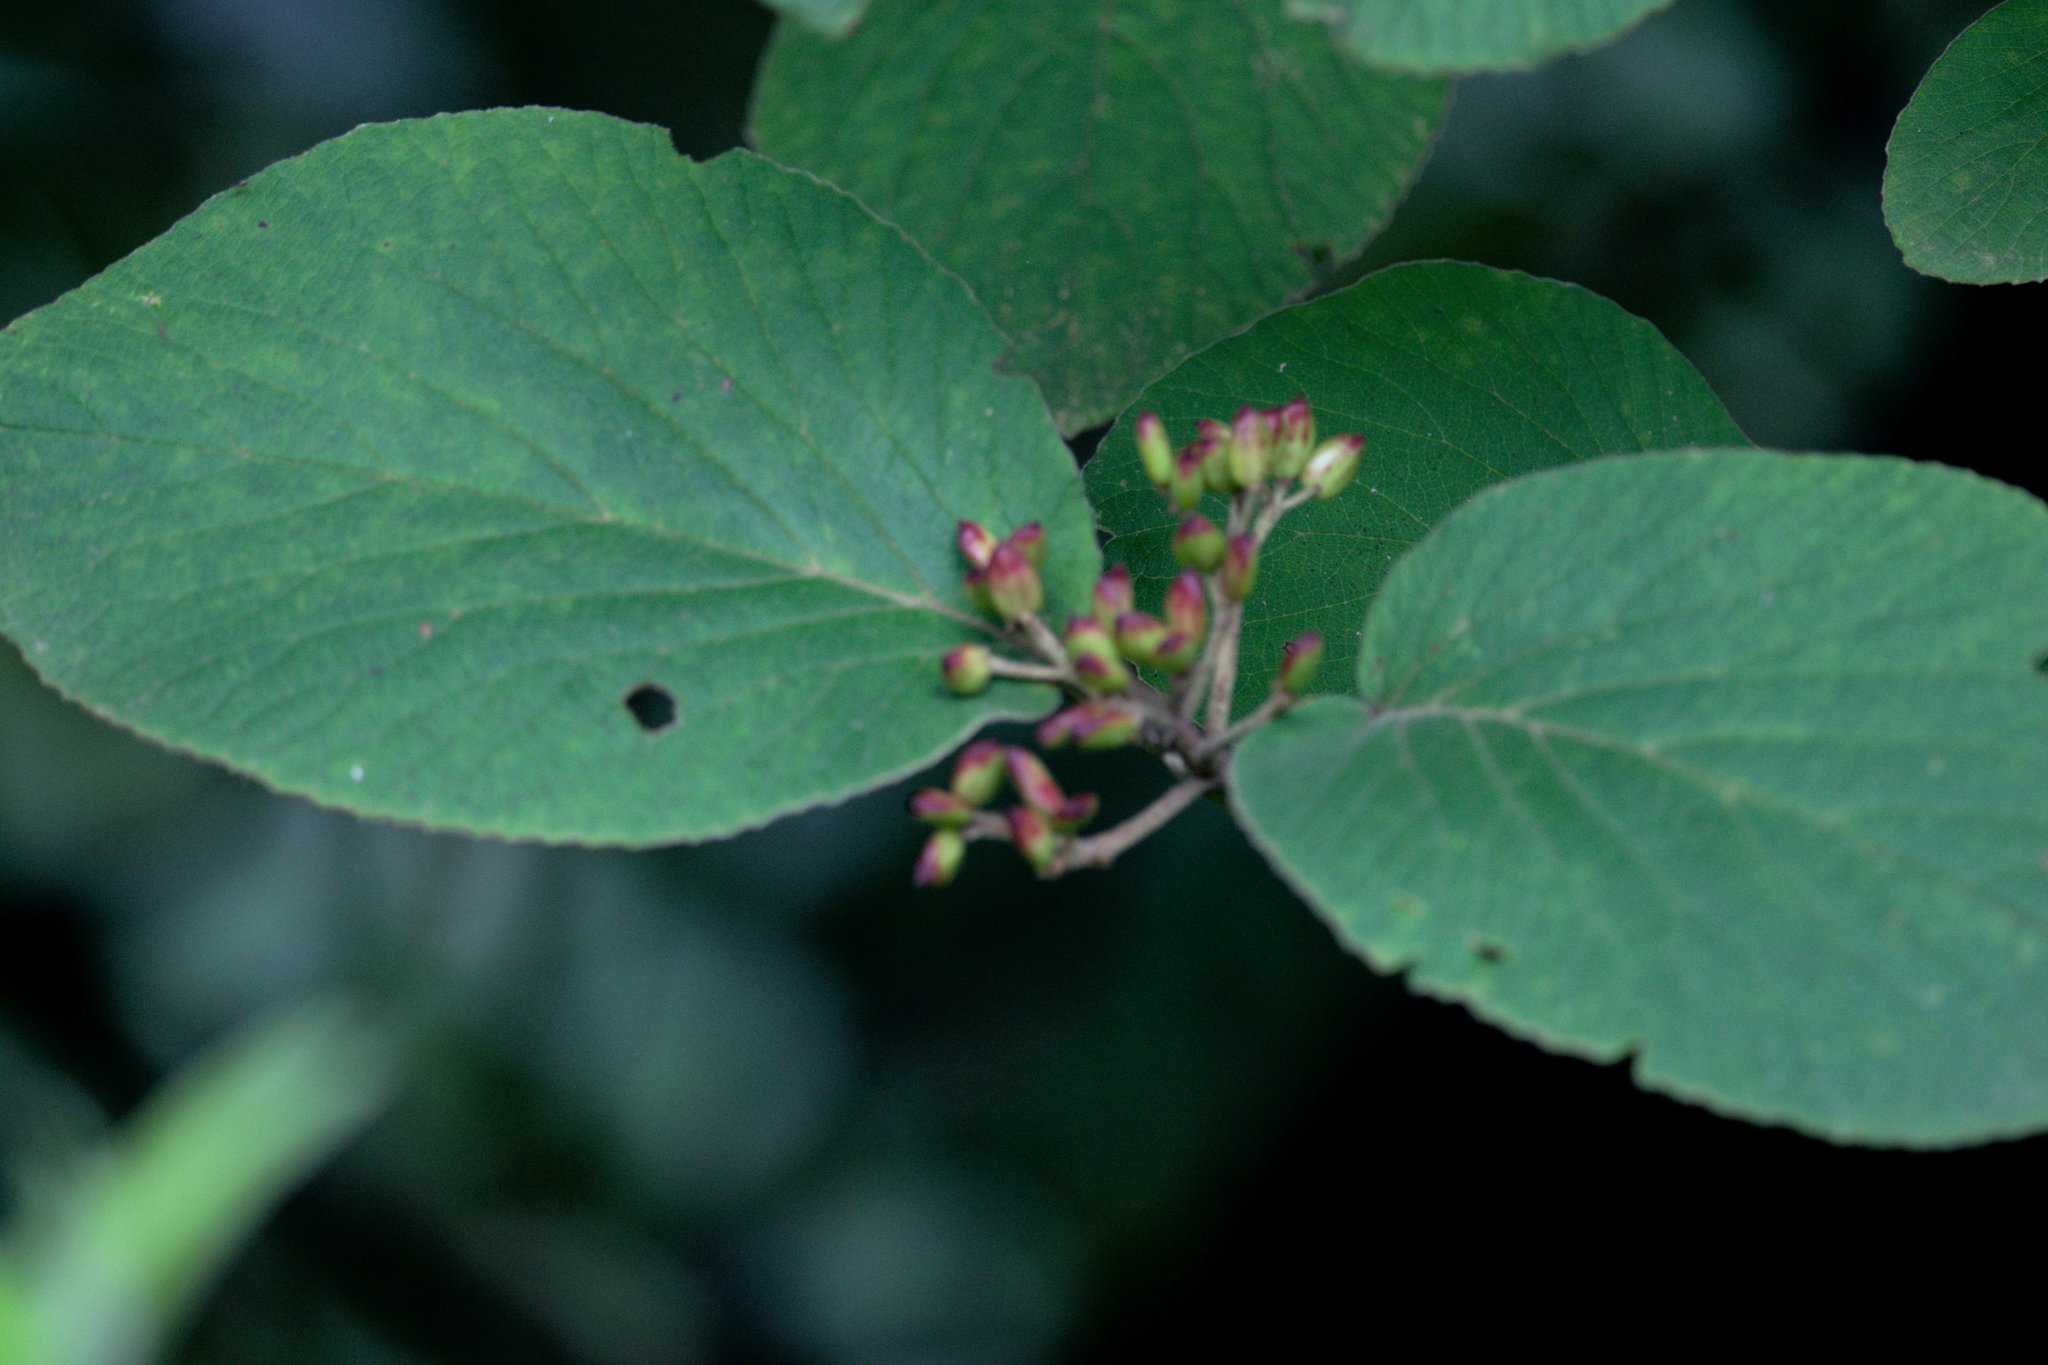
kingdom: Plantae
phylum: Tracheophyta
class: Magnoliopsida
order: Dipsacales
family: Viburnaceae
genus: Viburnum
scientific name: Viburnum cotinifolium
